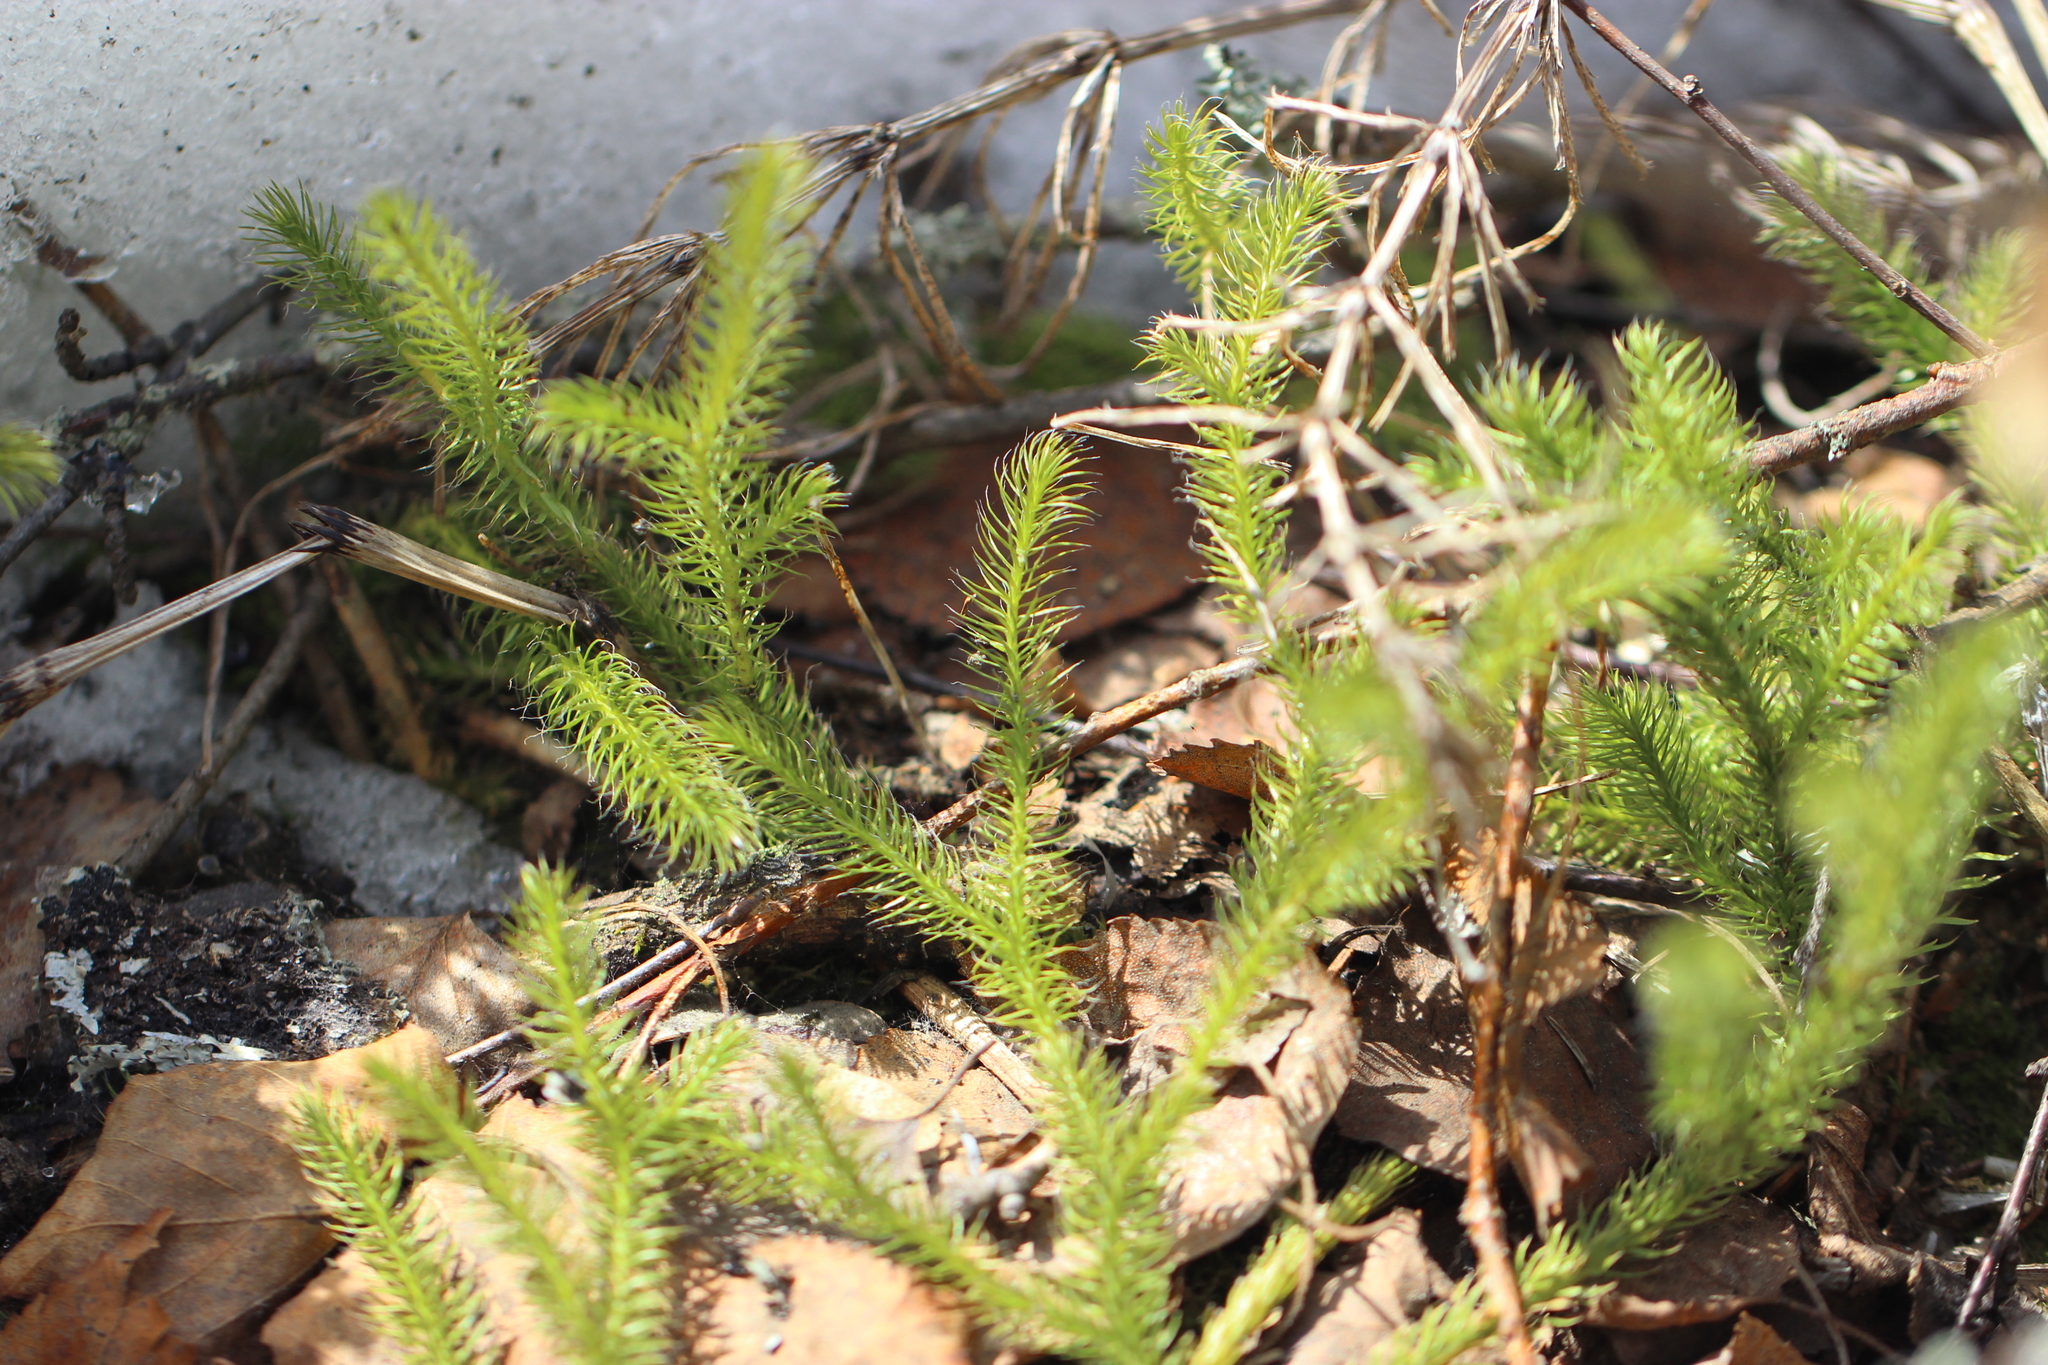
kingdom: Plantae
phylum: Tracheophyta
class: Lycopodiopsida
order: Lycopodiales
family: Lycopodiaceae
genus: Lycopodium
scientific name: Lycopodium clavatum
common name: Stag's-horn clubmoss
